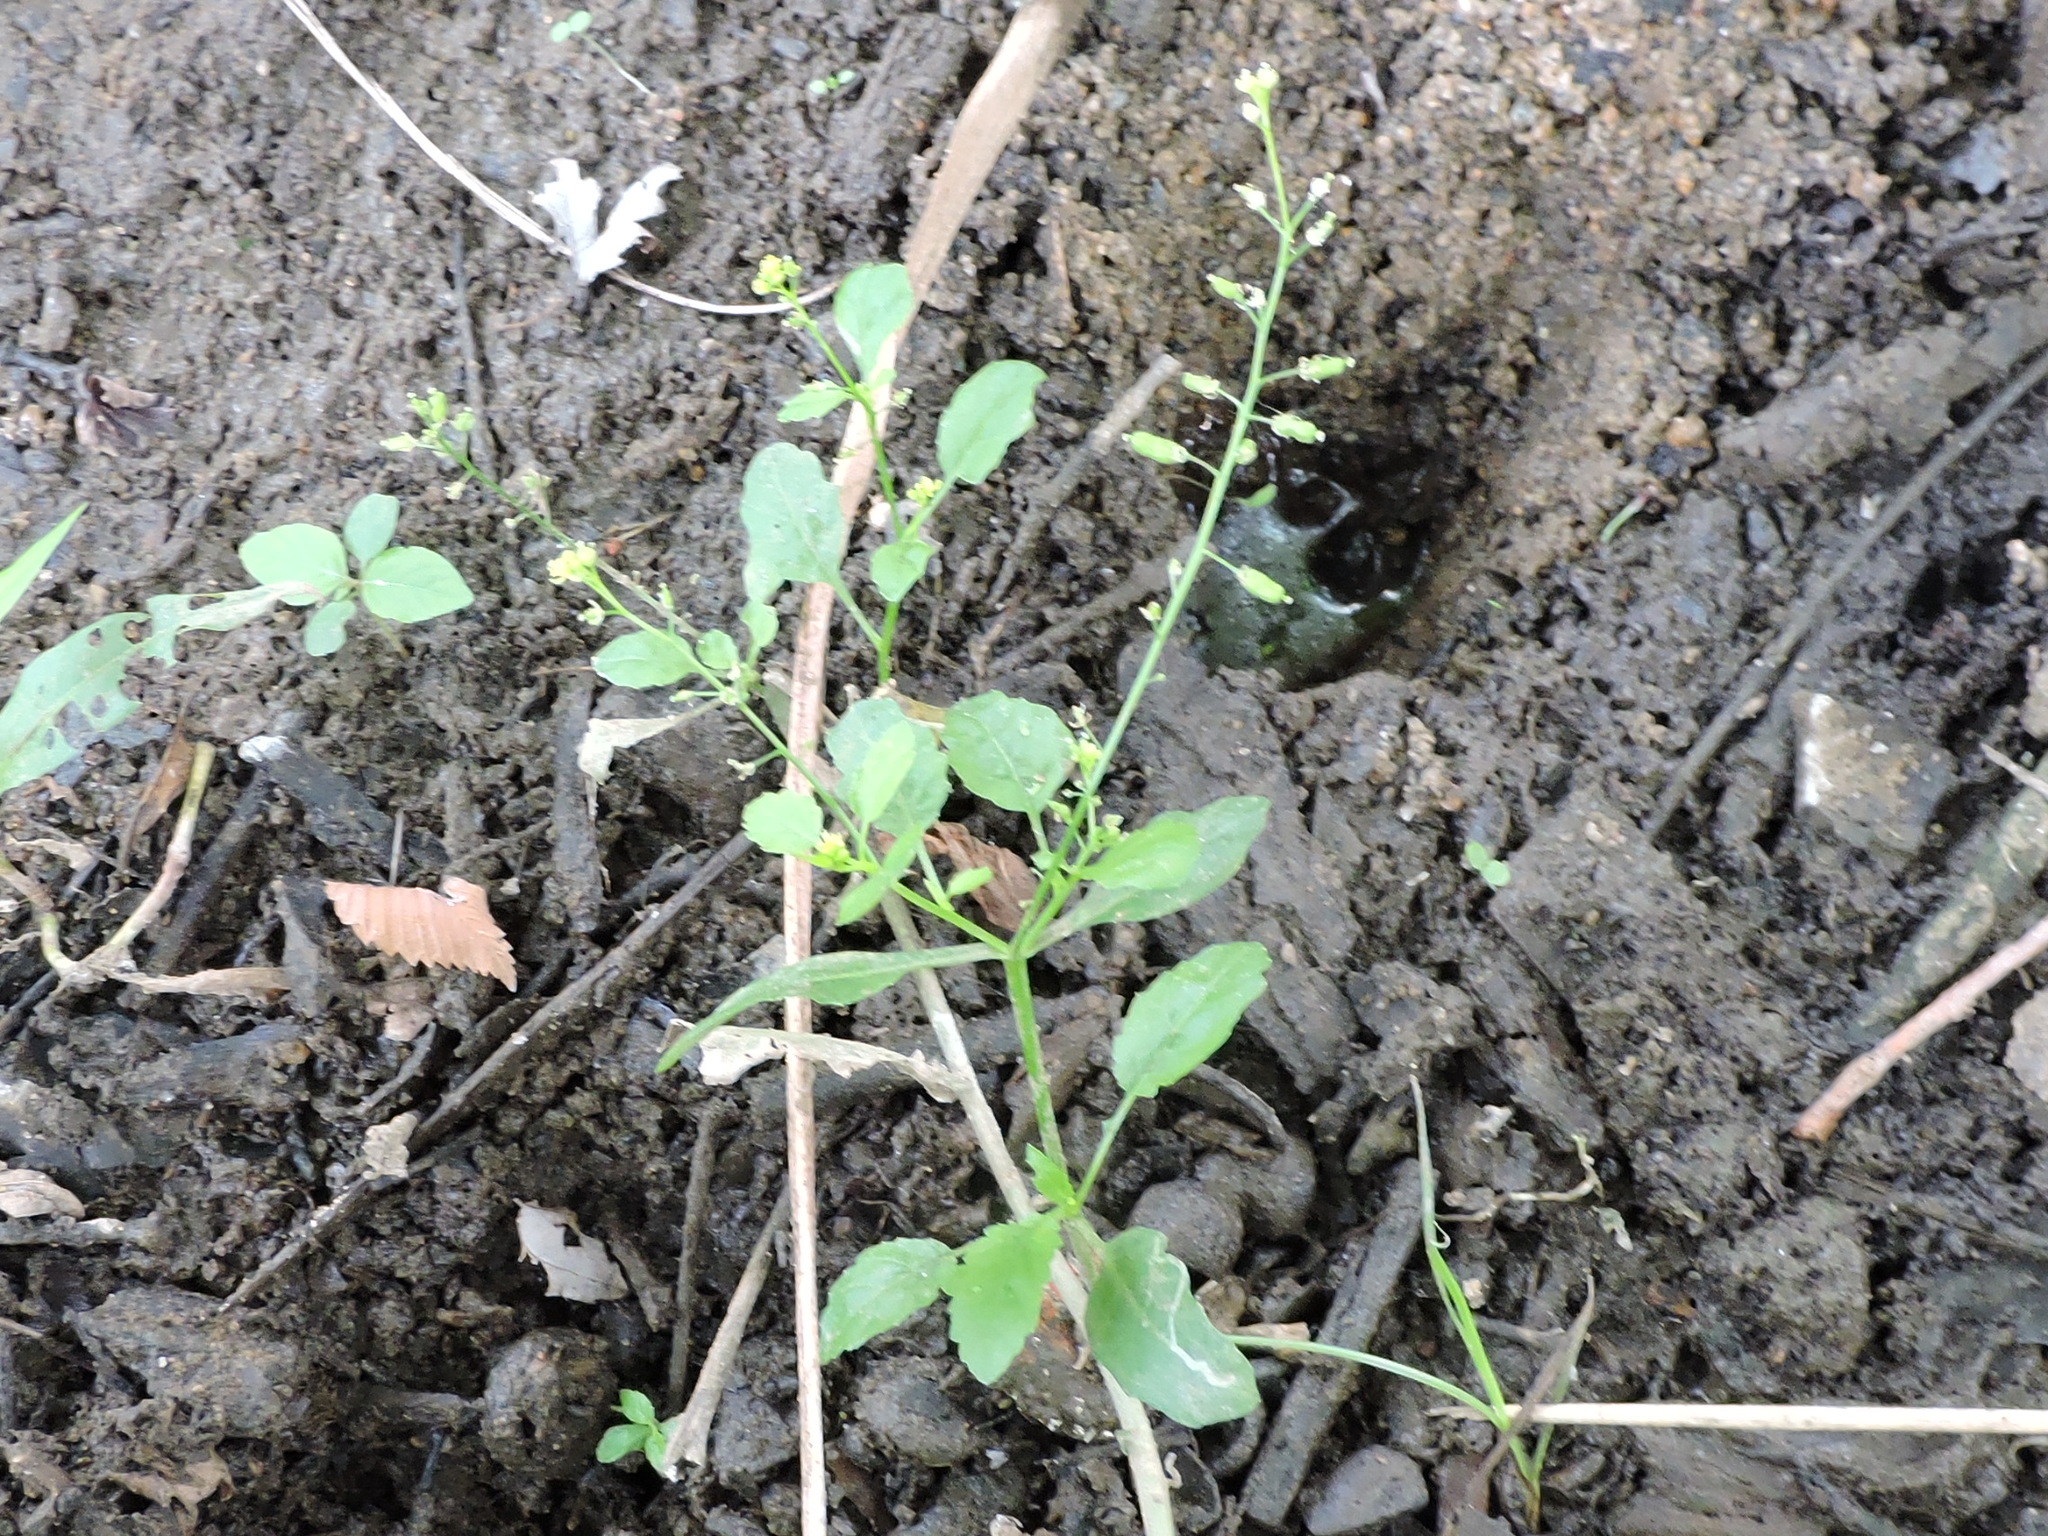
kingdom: Plantae
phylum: Tracheophyta
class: Magnoliopsida
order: Brassicales
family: Brassicaceae
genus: Rorippa
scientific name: Rorippa palustris
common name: Marsh yellow-cress
